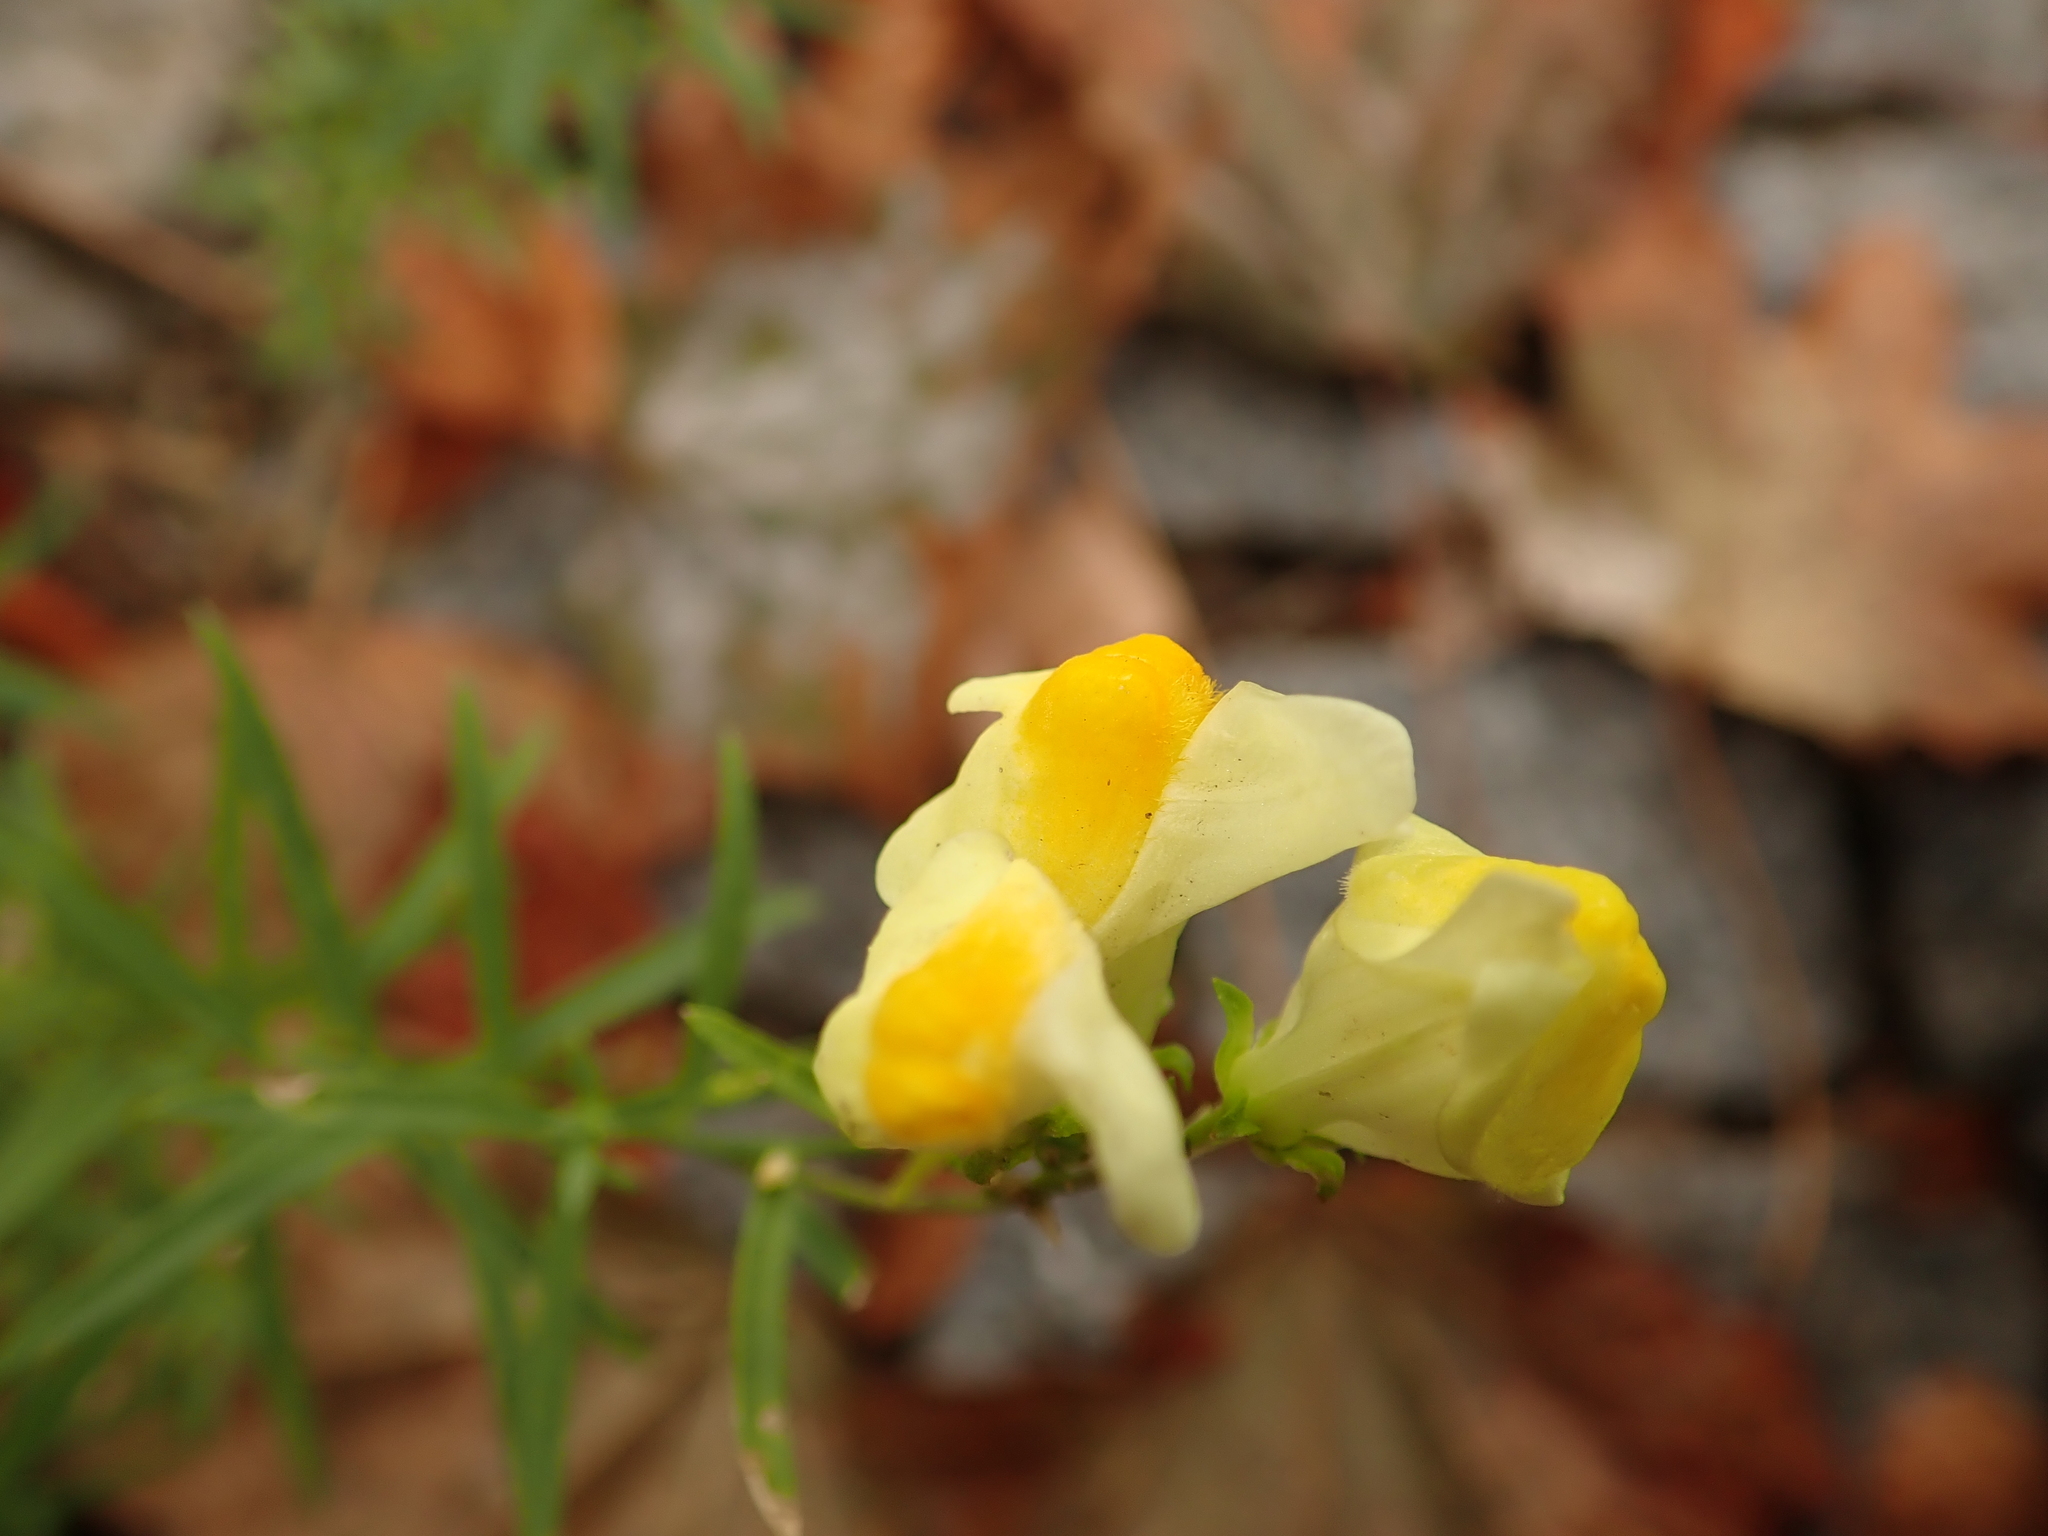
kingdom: Plantae
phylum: Tracheophyta
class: Magnoliopsida
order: Lamiales
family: Plantaginaceae
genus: Linaria
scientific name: Linaria vulgaris
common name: Butter and eggs
